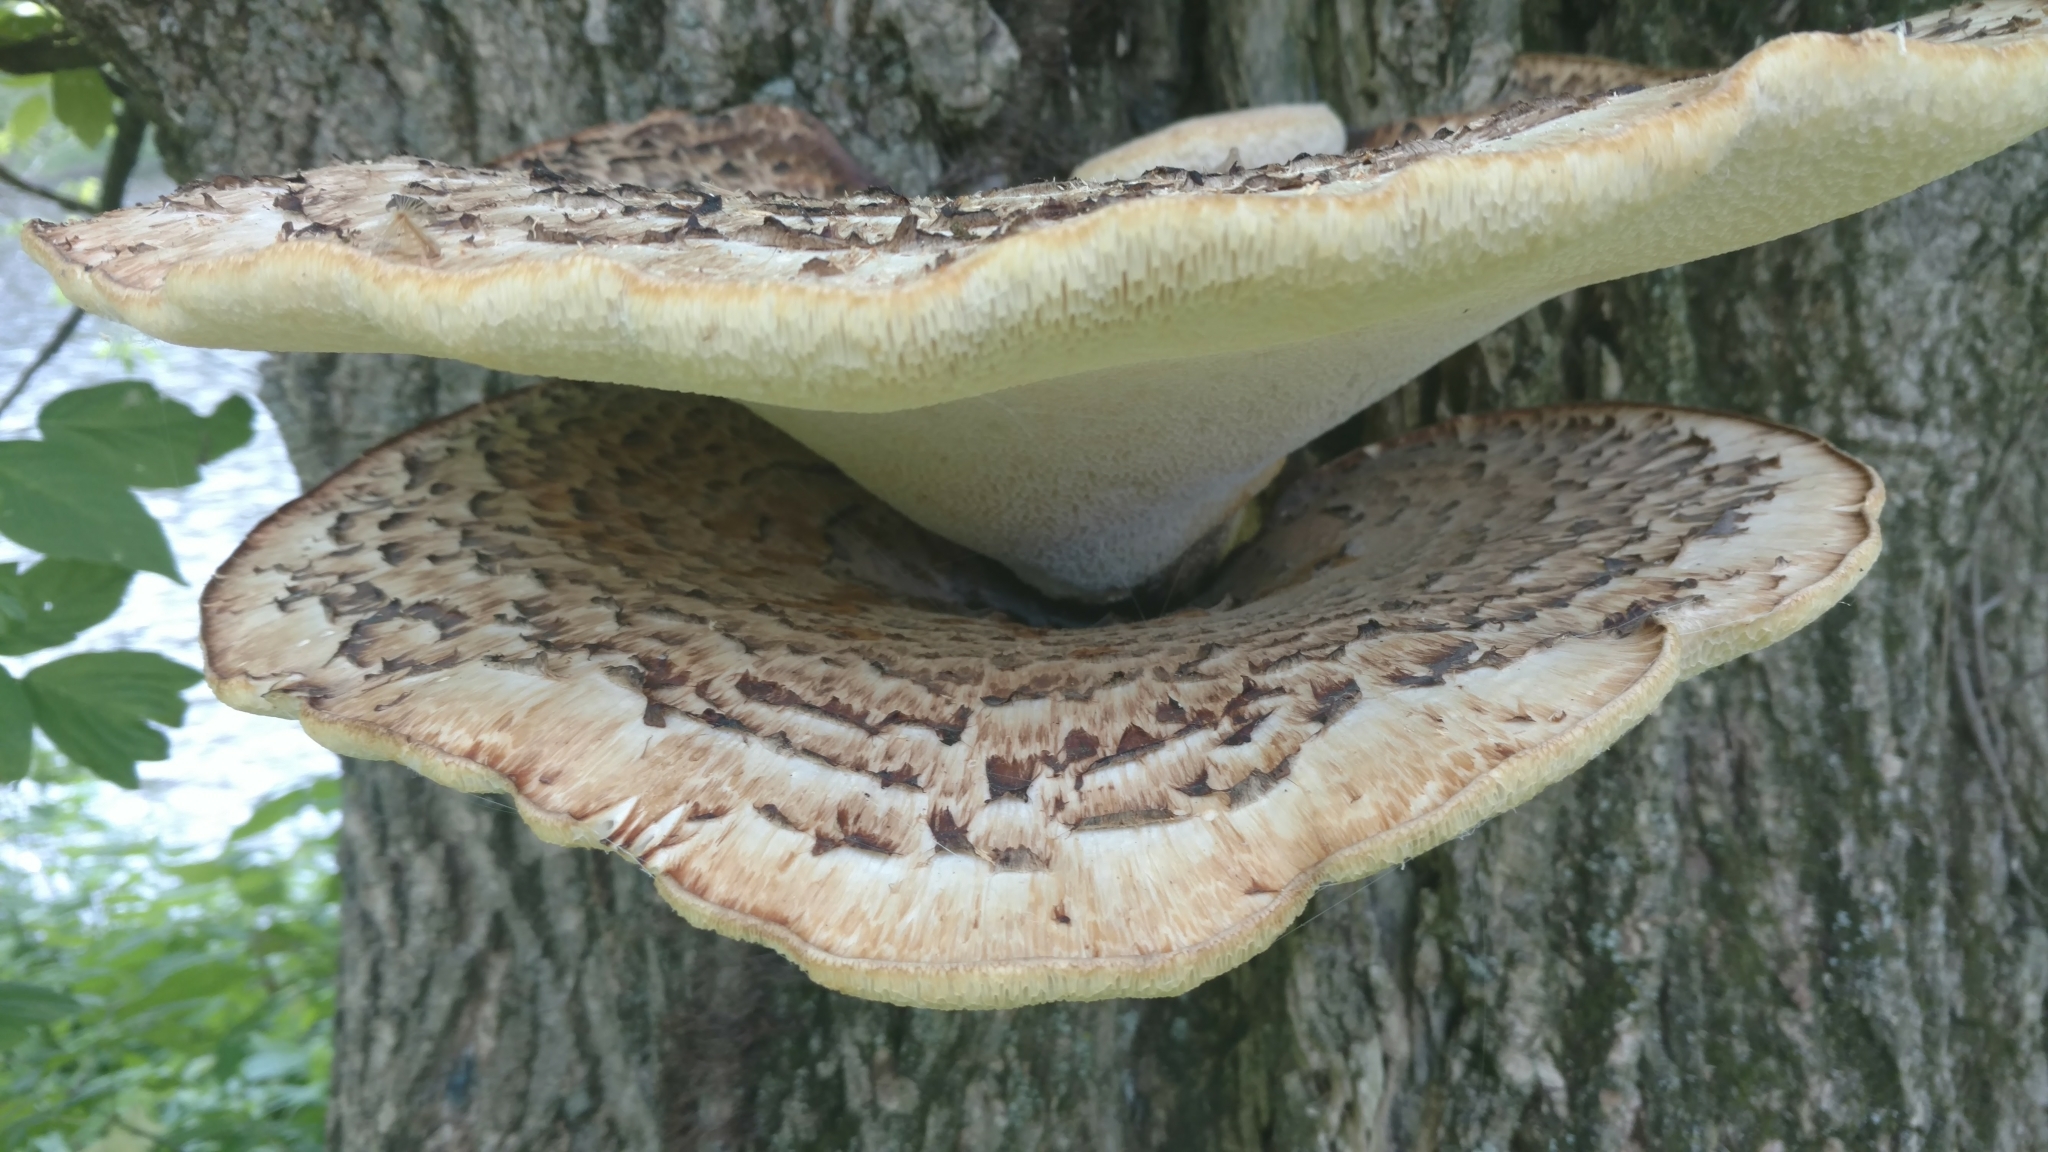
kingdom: Fungi
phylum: Basidiomycota
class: Agaricomycetes
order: Polyporales
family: Polyporaceae
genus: Cerioporus
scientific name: Cerioporus squamosus
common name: Dryad's saddle
